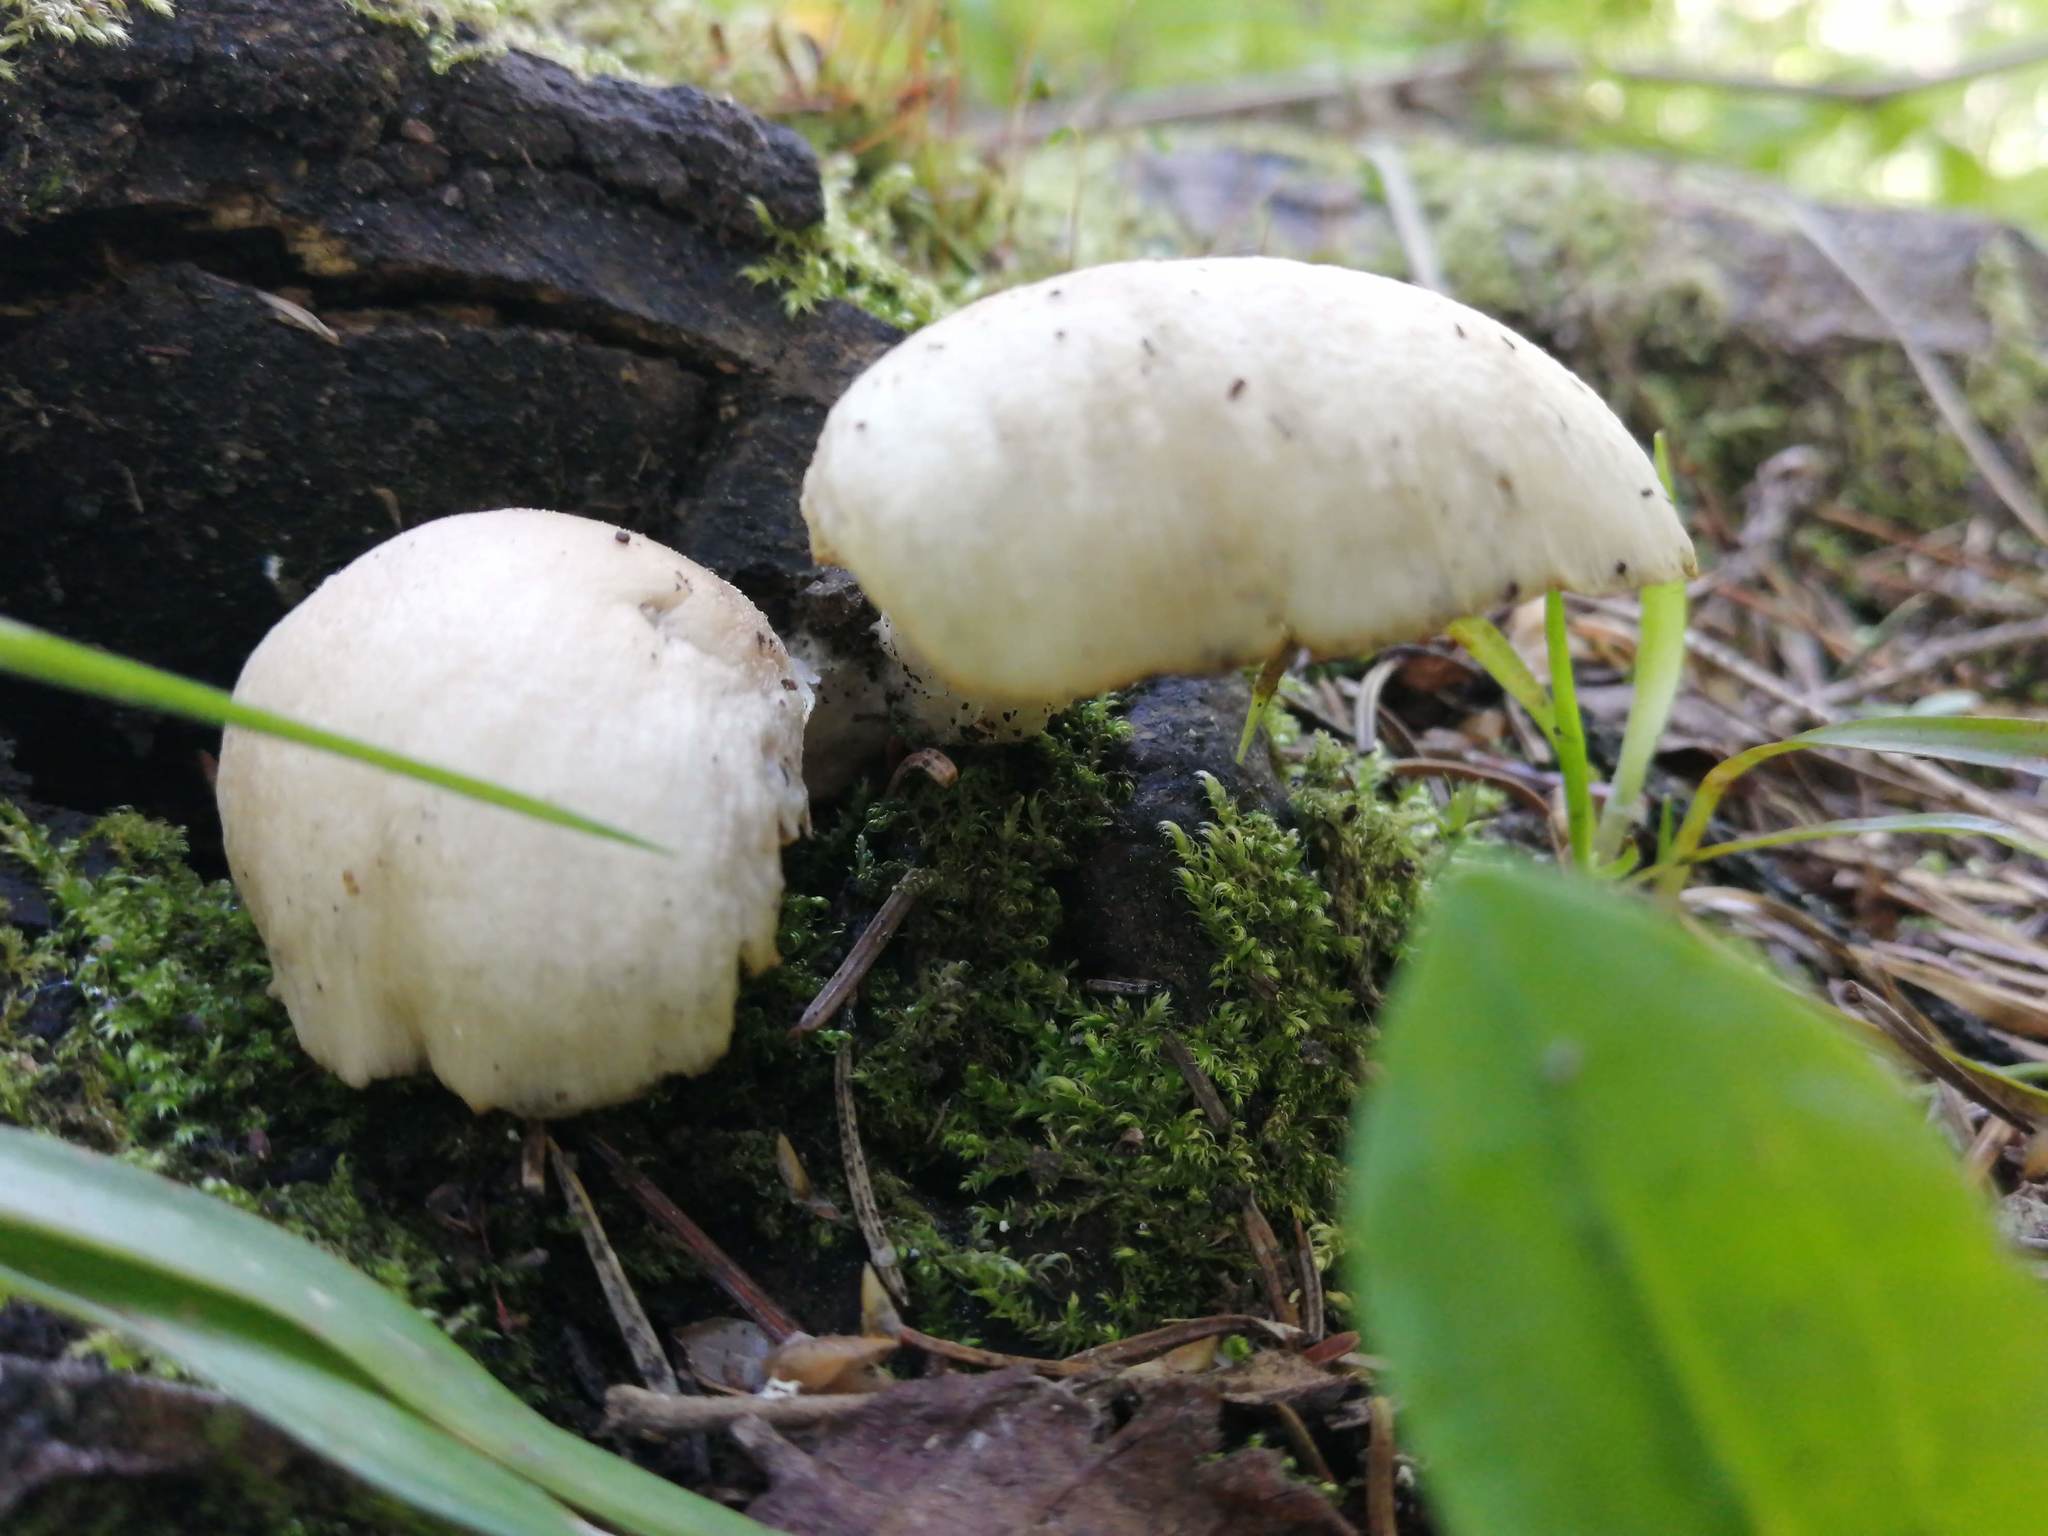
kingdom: Fungi
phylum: Basidiomycota
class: Agaricomycetes
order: Agaricales
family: Pleurotaceae
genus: Pleurotus
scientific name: Pleurotus pulmonarius
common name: Pale oyster
